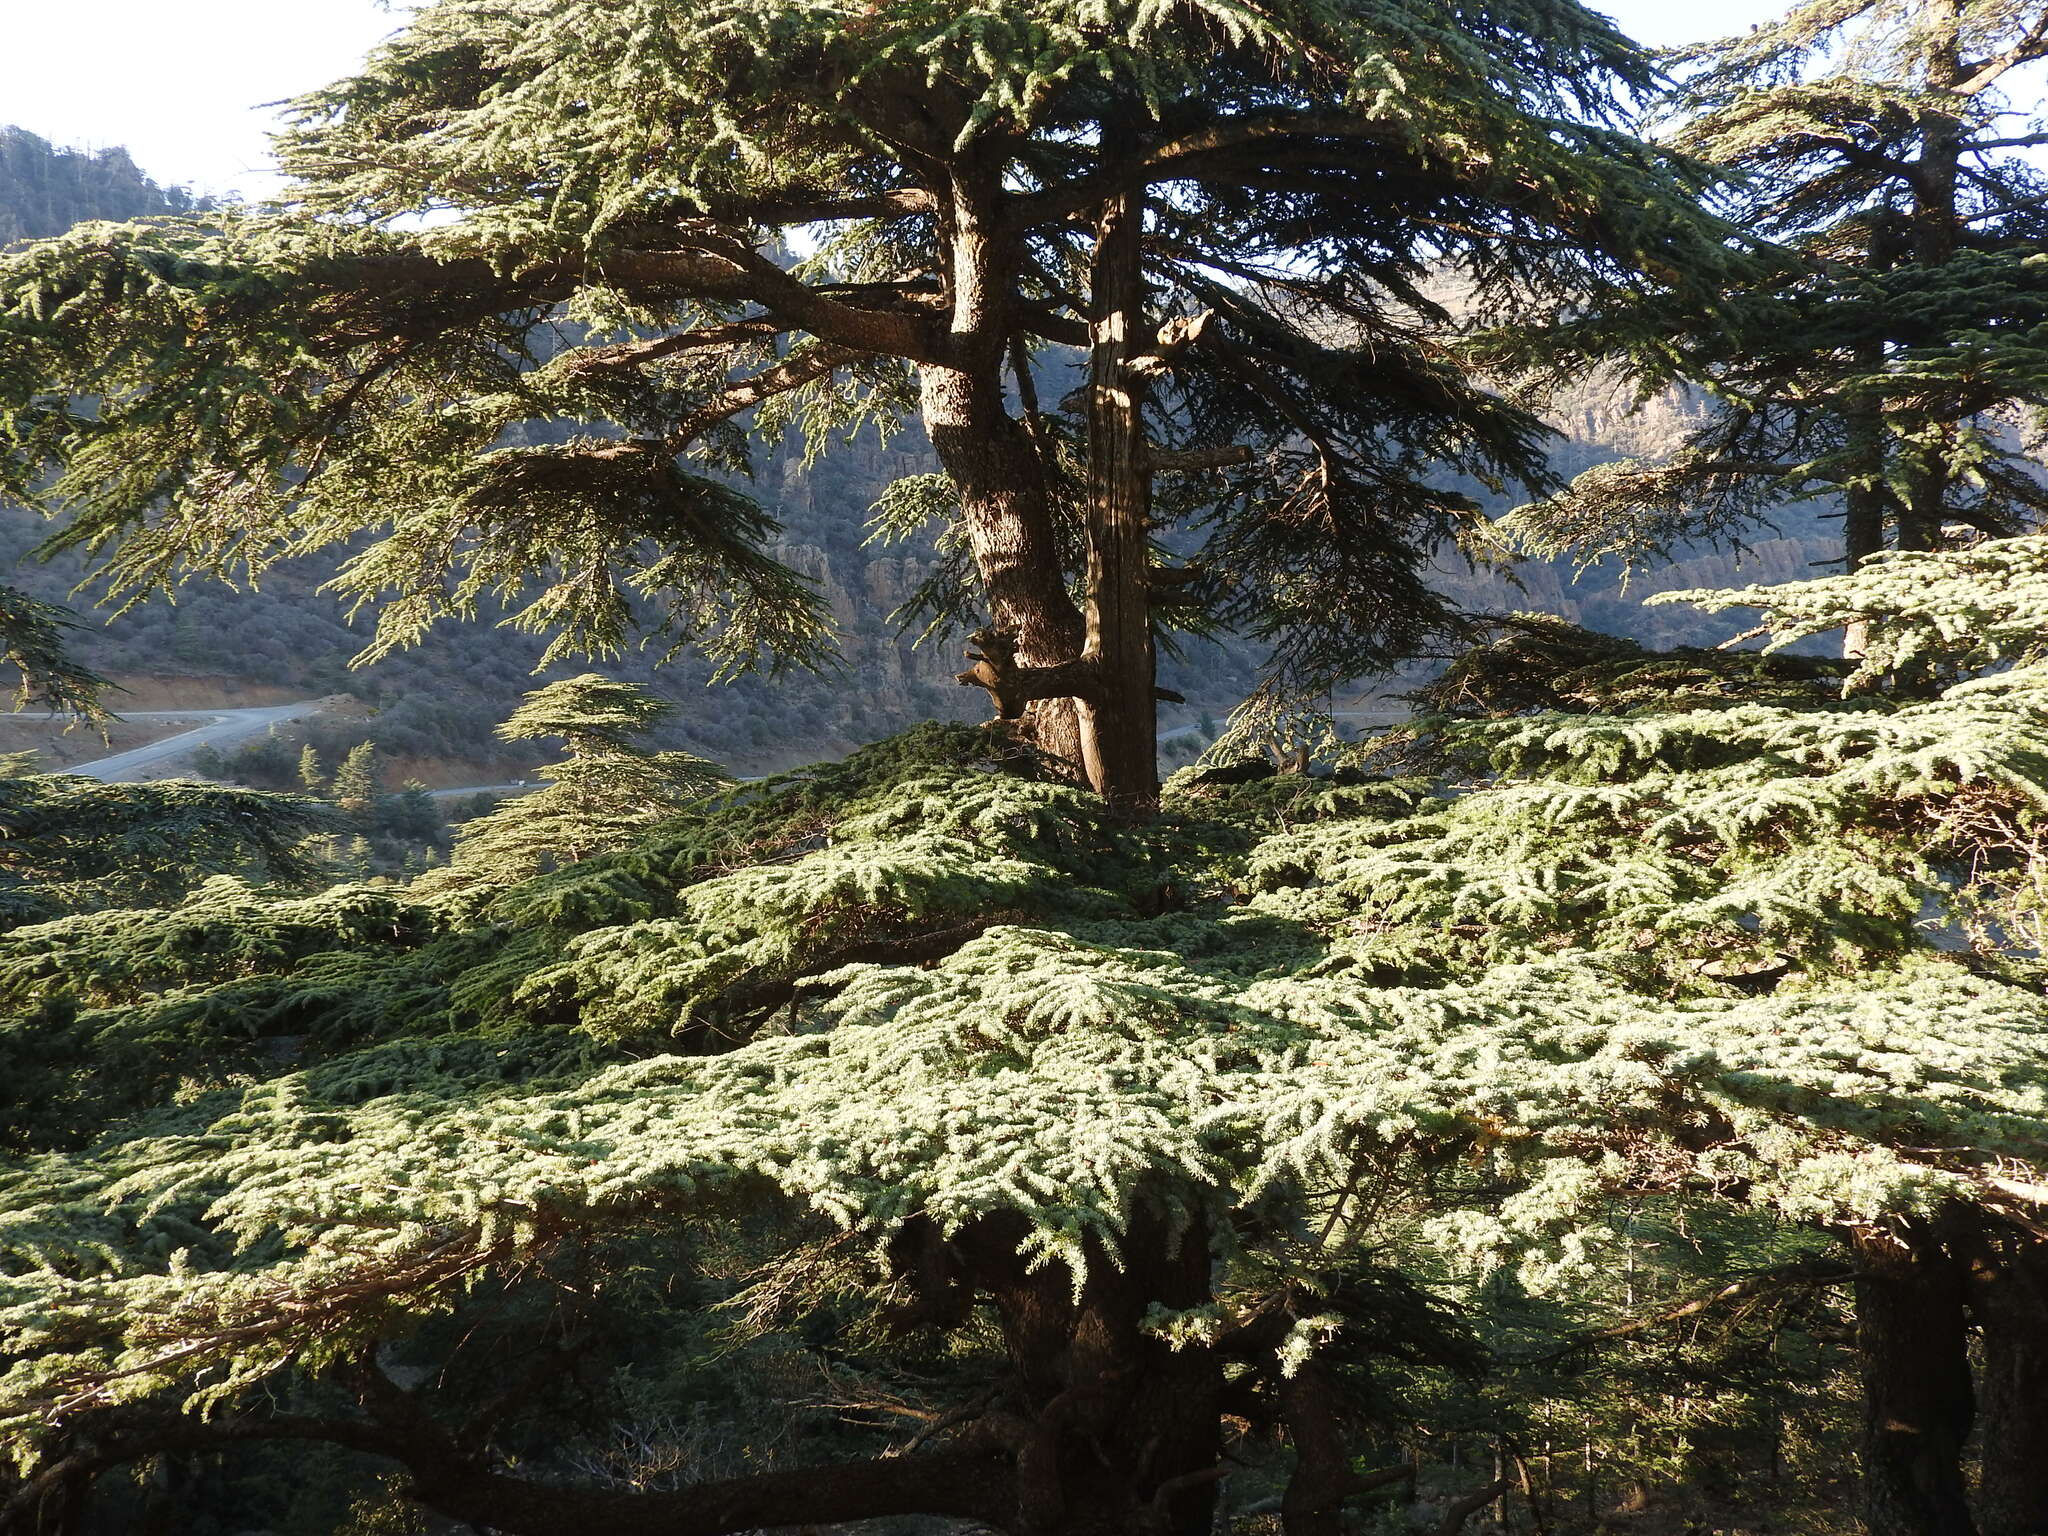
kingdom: Plantae
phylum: Tracheophyta
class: Pinopsida
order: Pinales
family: Pinaceae
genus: Cedrus
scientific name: Cedrus atlantica
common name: Atlas cedar
